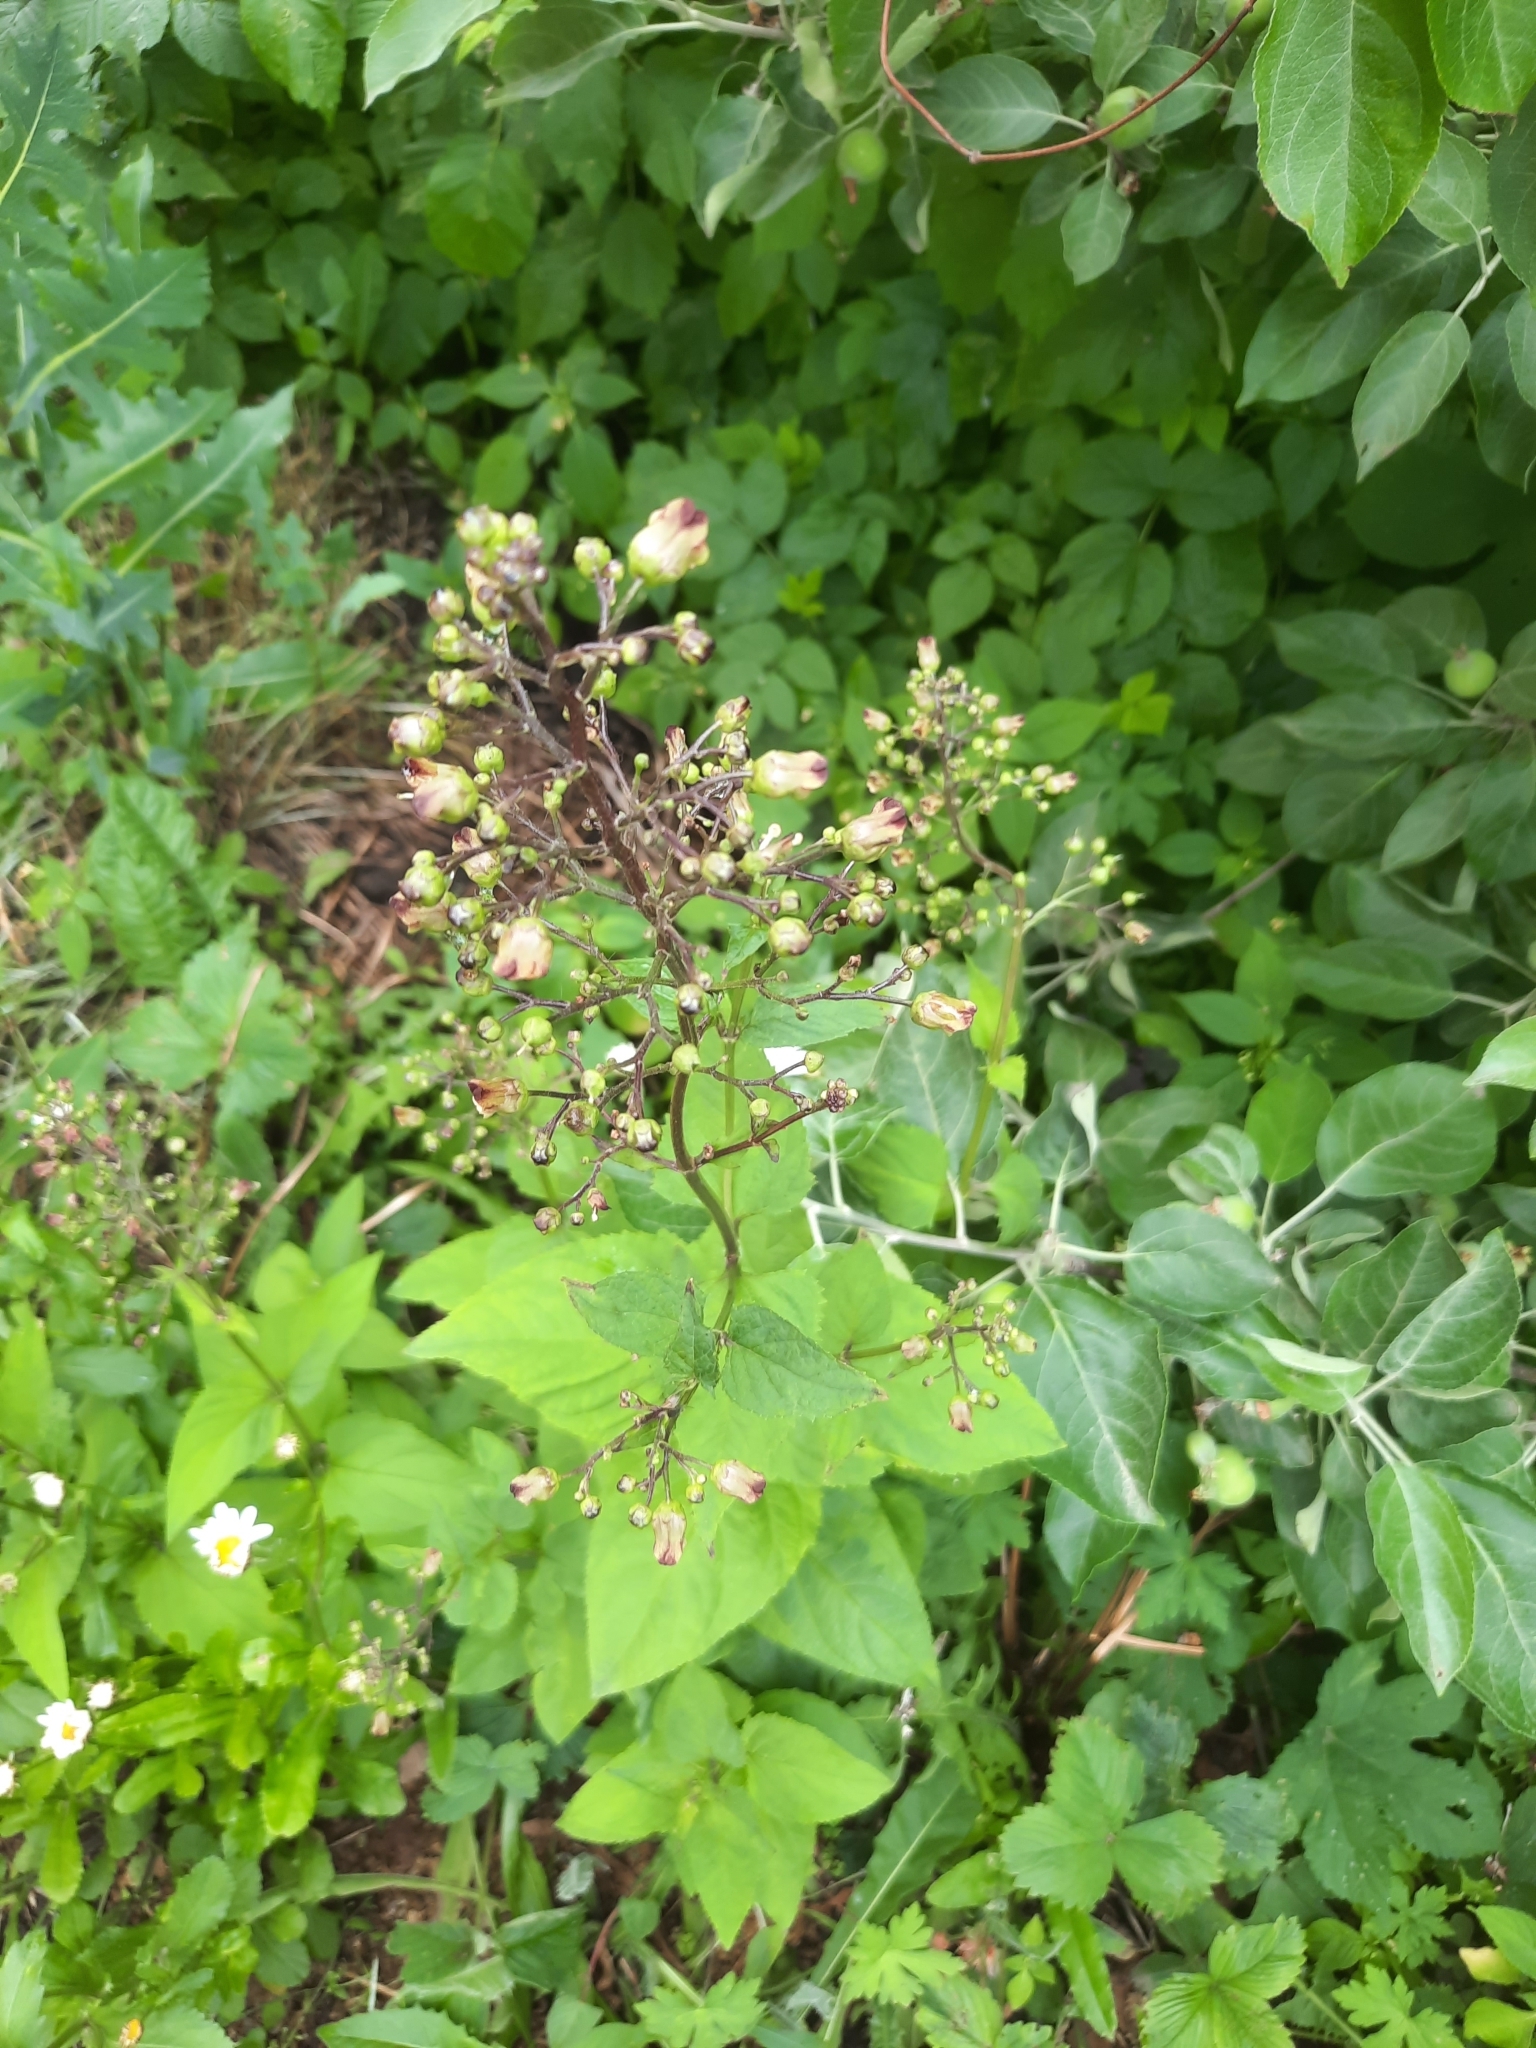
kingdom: Plantae
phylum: Tracheophyta
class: Magnoliopsida
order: Lamiales
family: Scrophulariaceae
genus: Scrophularia
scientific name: Scrophularia nodosa
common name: Common figwort
